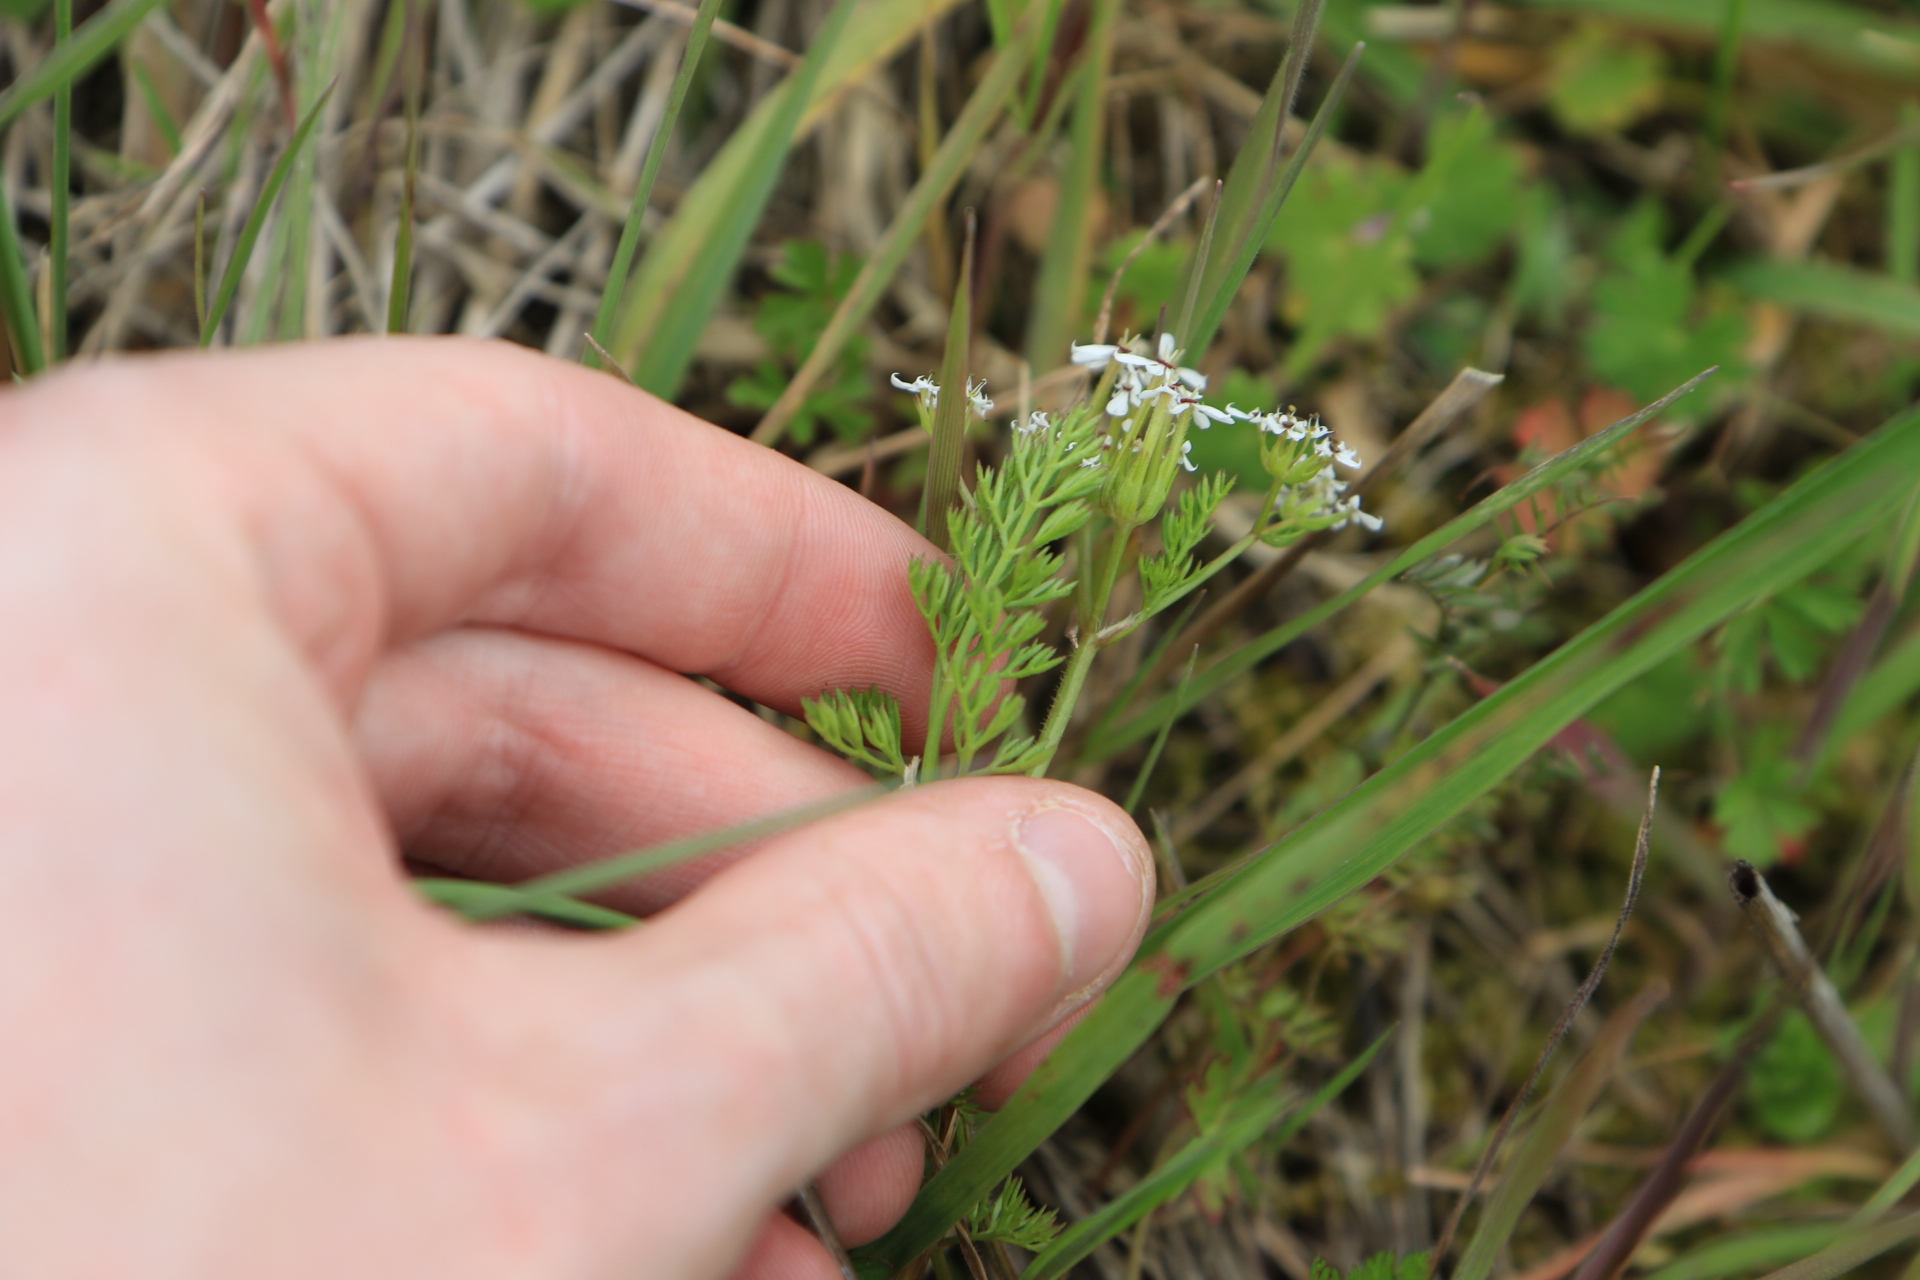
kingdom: Plantae
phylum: Tracheophyta
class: Magnoliopsida
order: Apiales
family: Apiaceae
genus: Scandix
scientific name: Scandix pecten-veneris
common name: Shepherd's-needle
